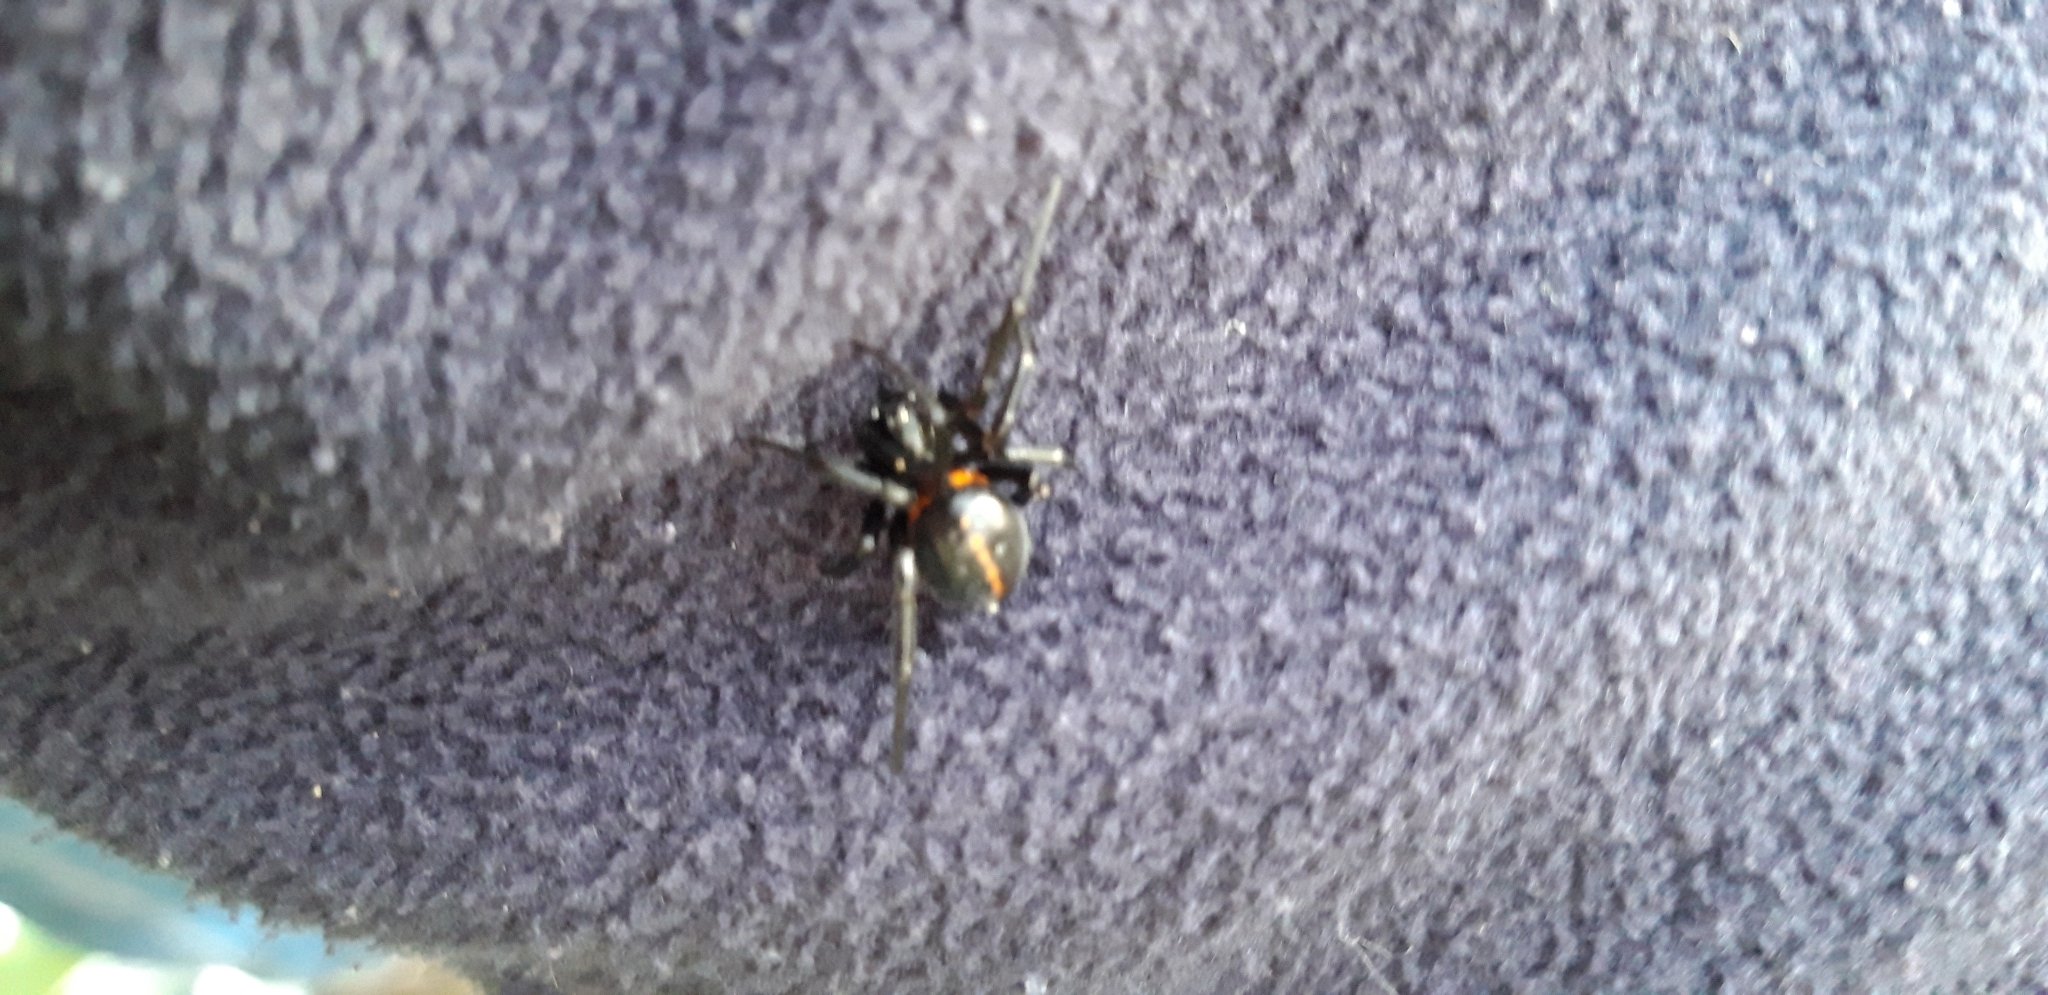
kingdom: Animalia
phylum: Arthropoda
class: Arachnida
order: Araneae
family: Theridiidae
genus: Steatoda
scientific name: Steatoda paykulliana
